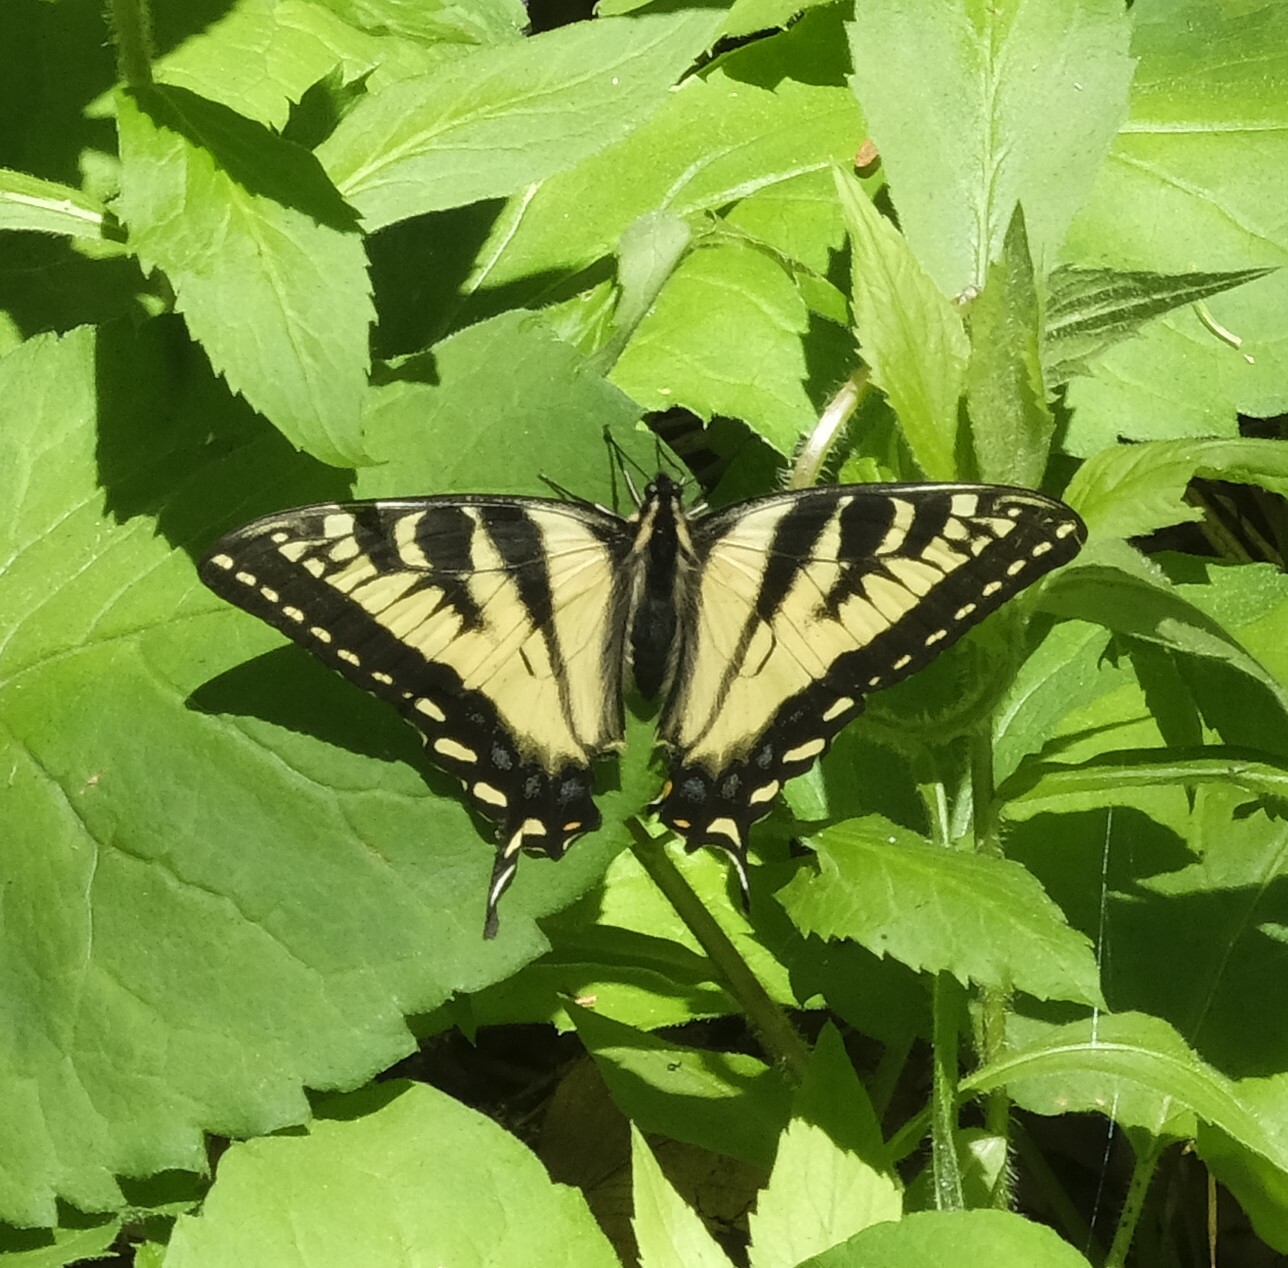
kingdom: Animalia
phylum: Arthropoda
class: Insecta
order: Lepidoptera
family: Papilionidae
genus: Papilio
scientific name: Papilio canadensis
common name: Canadian tiger swallowtail
